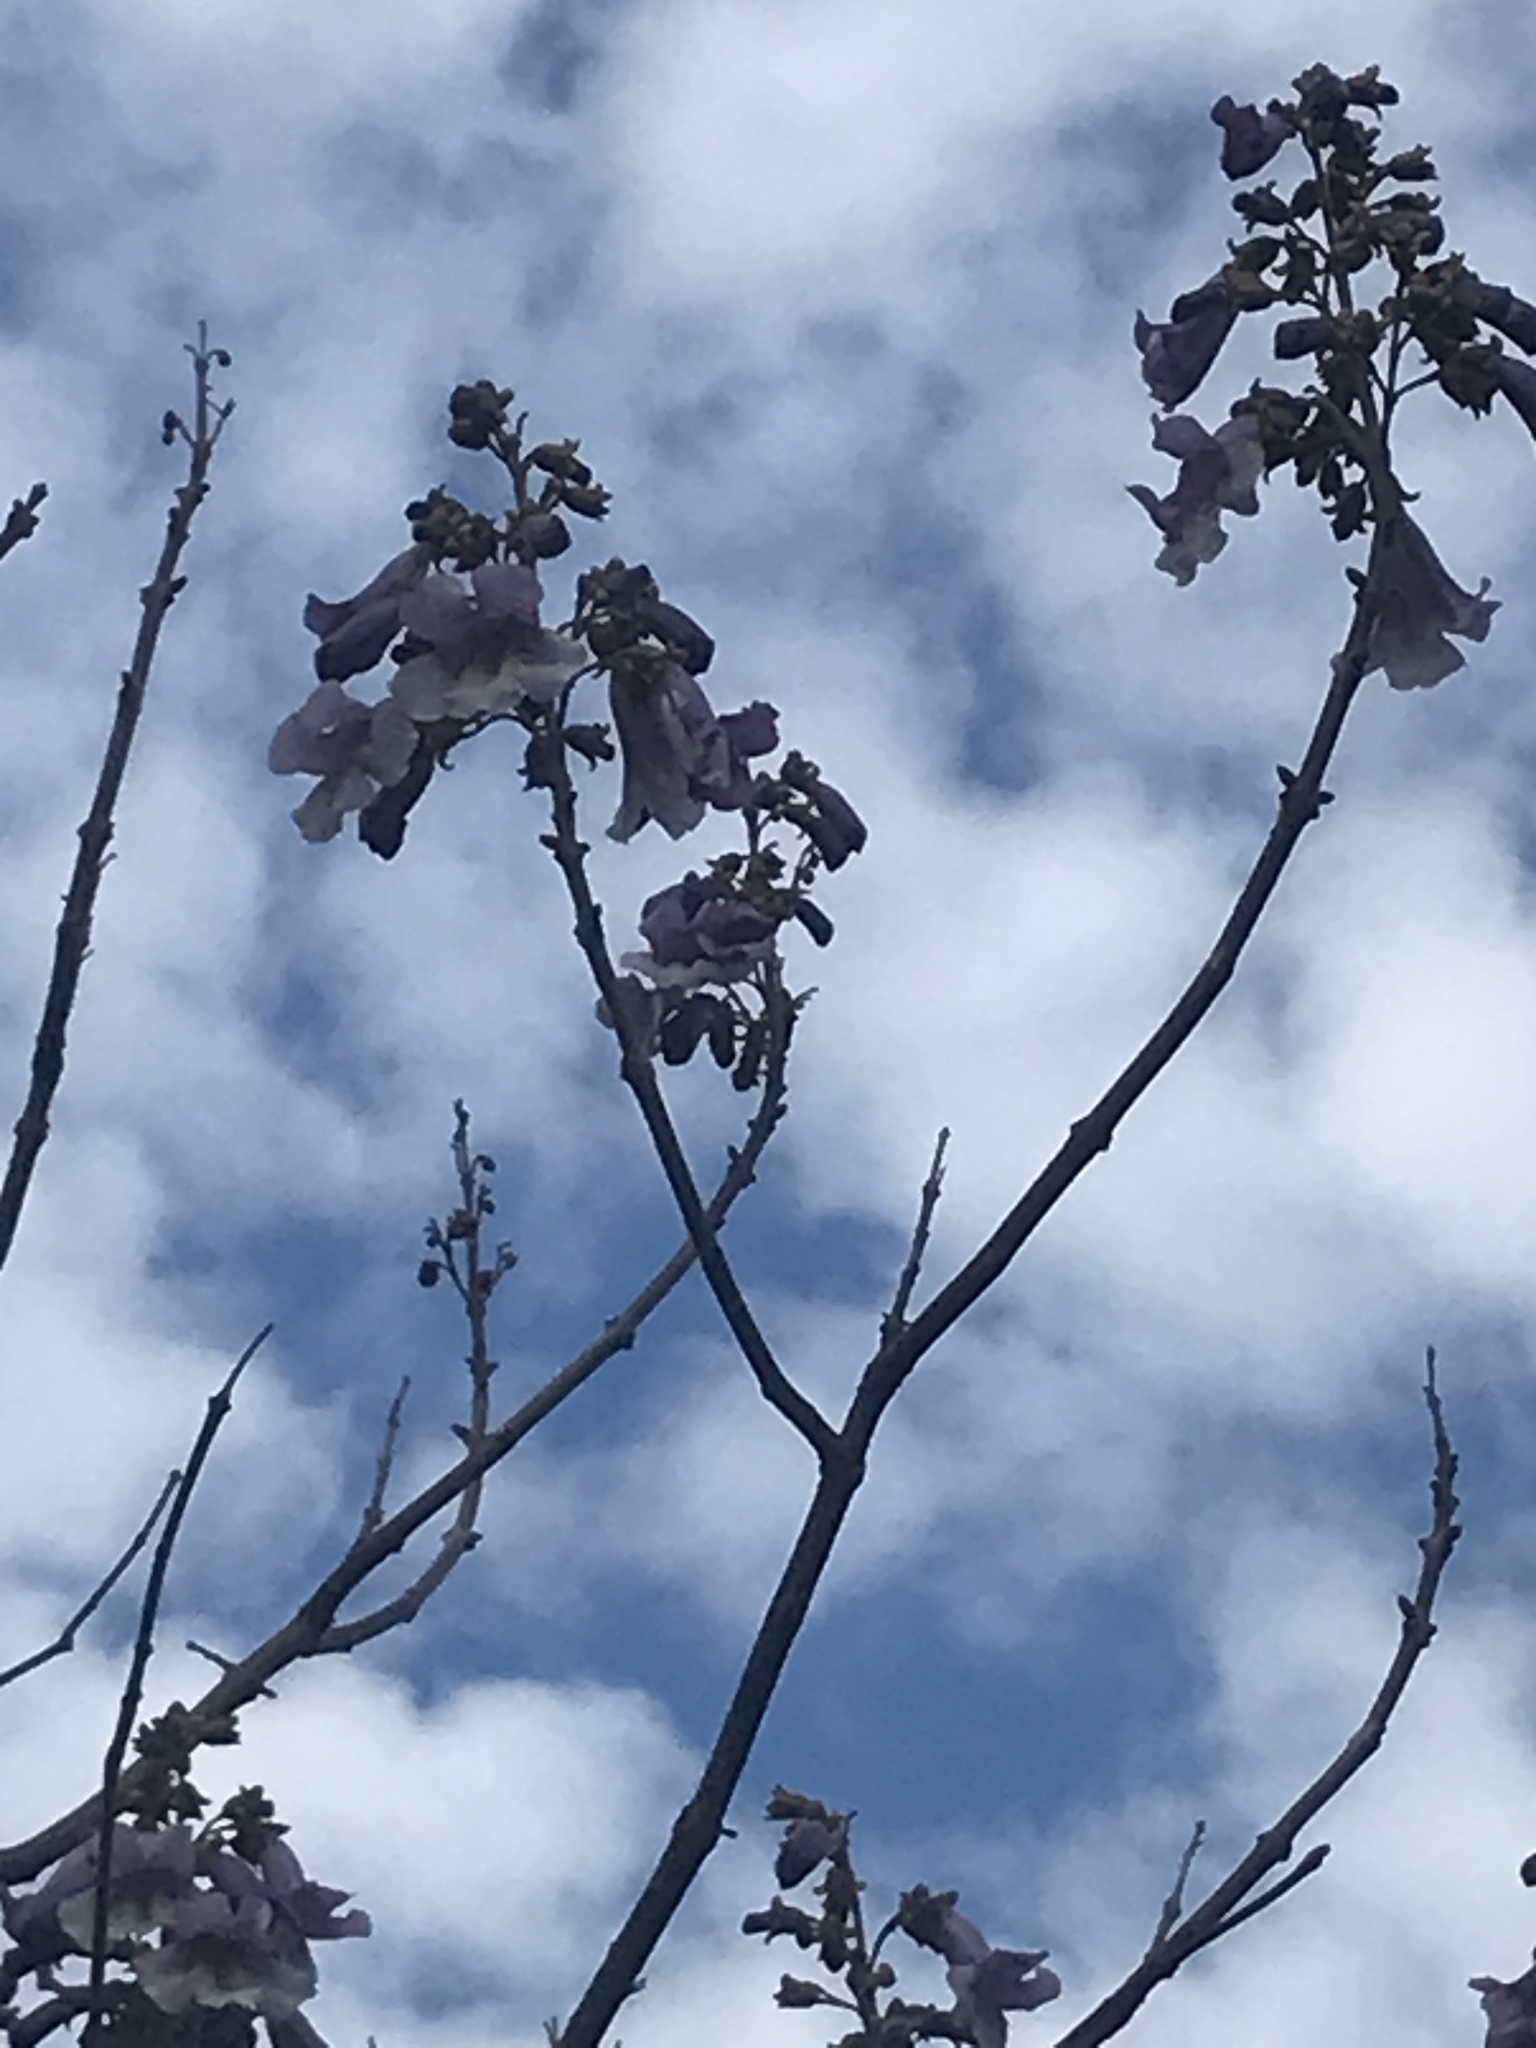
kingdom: Plantae
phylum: Tracheophyta
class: Magnoliopsida
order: Lamiales
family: Paulowniaceae
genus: Paulownia
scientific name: Paulownia tomentosa
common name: Foxglove-tree
